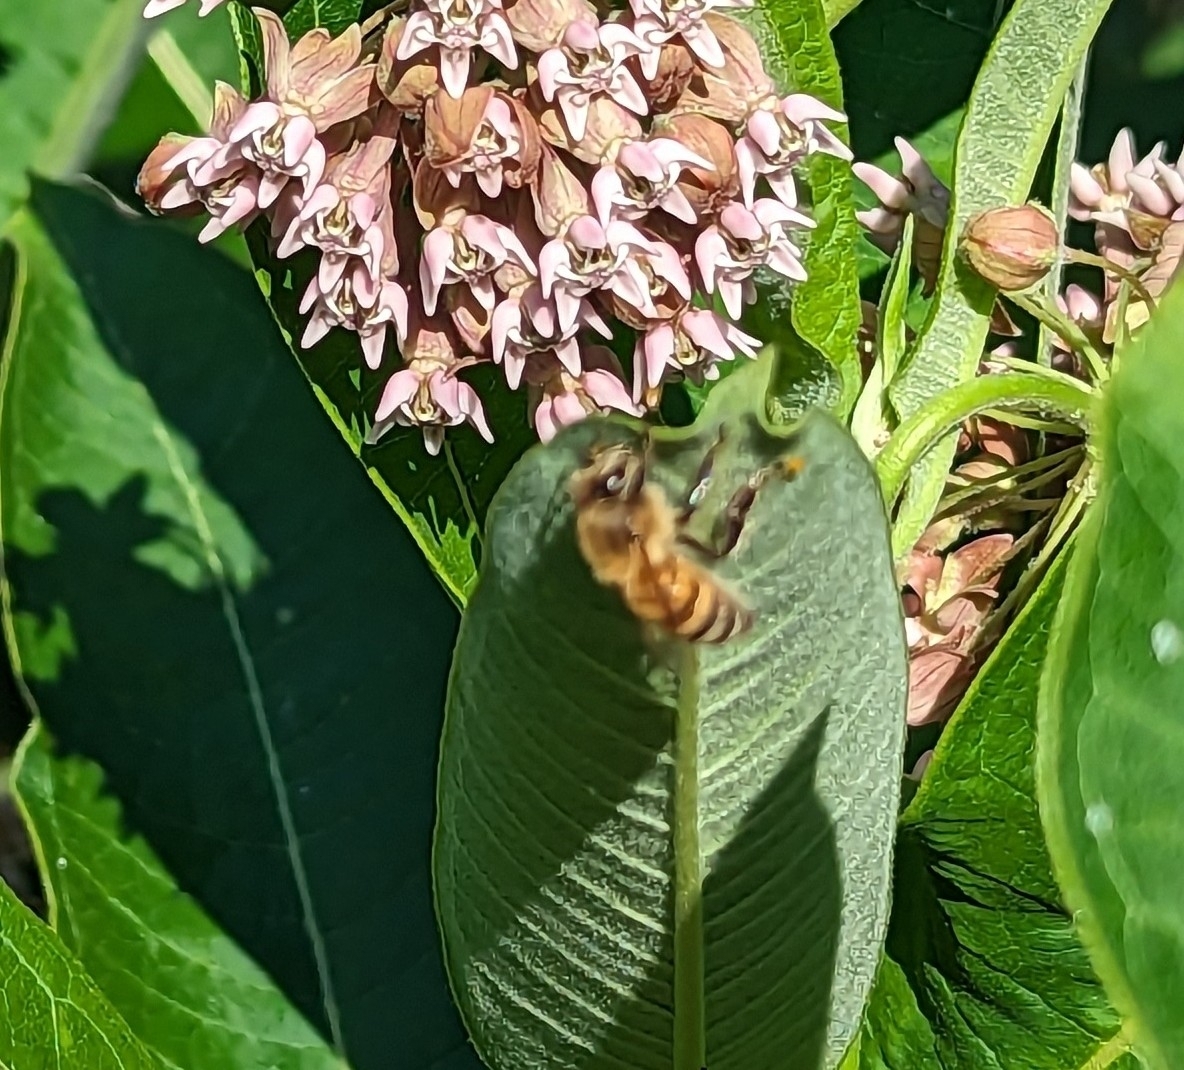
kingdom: Animalia
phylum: Arthropoda
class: Insecta
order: Hymenoptera
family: Apidae
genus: Apis
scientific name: Apis mellifera
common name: Honey bee
